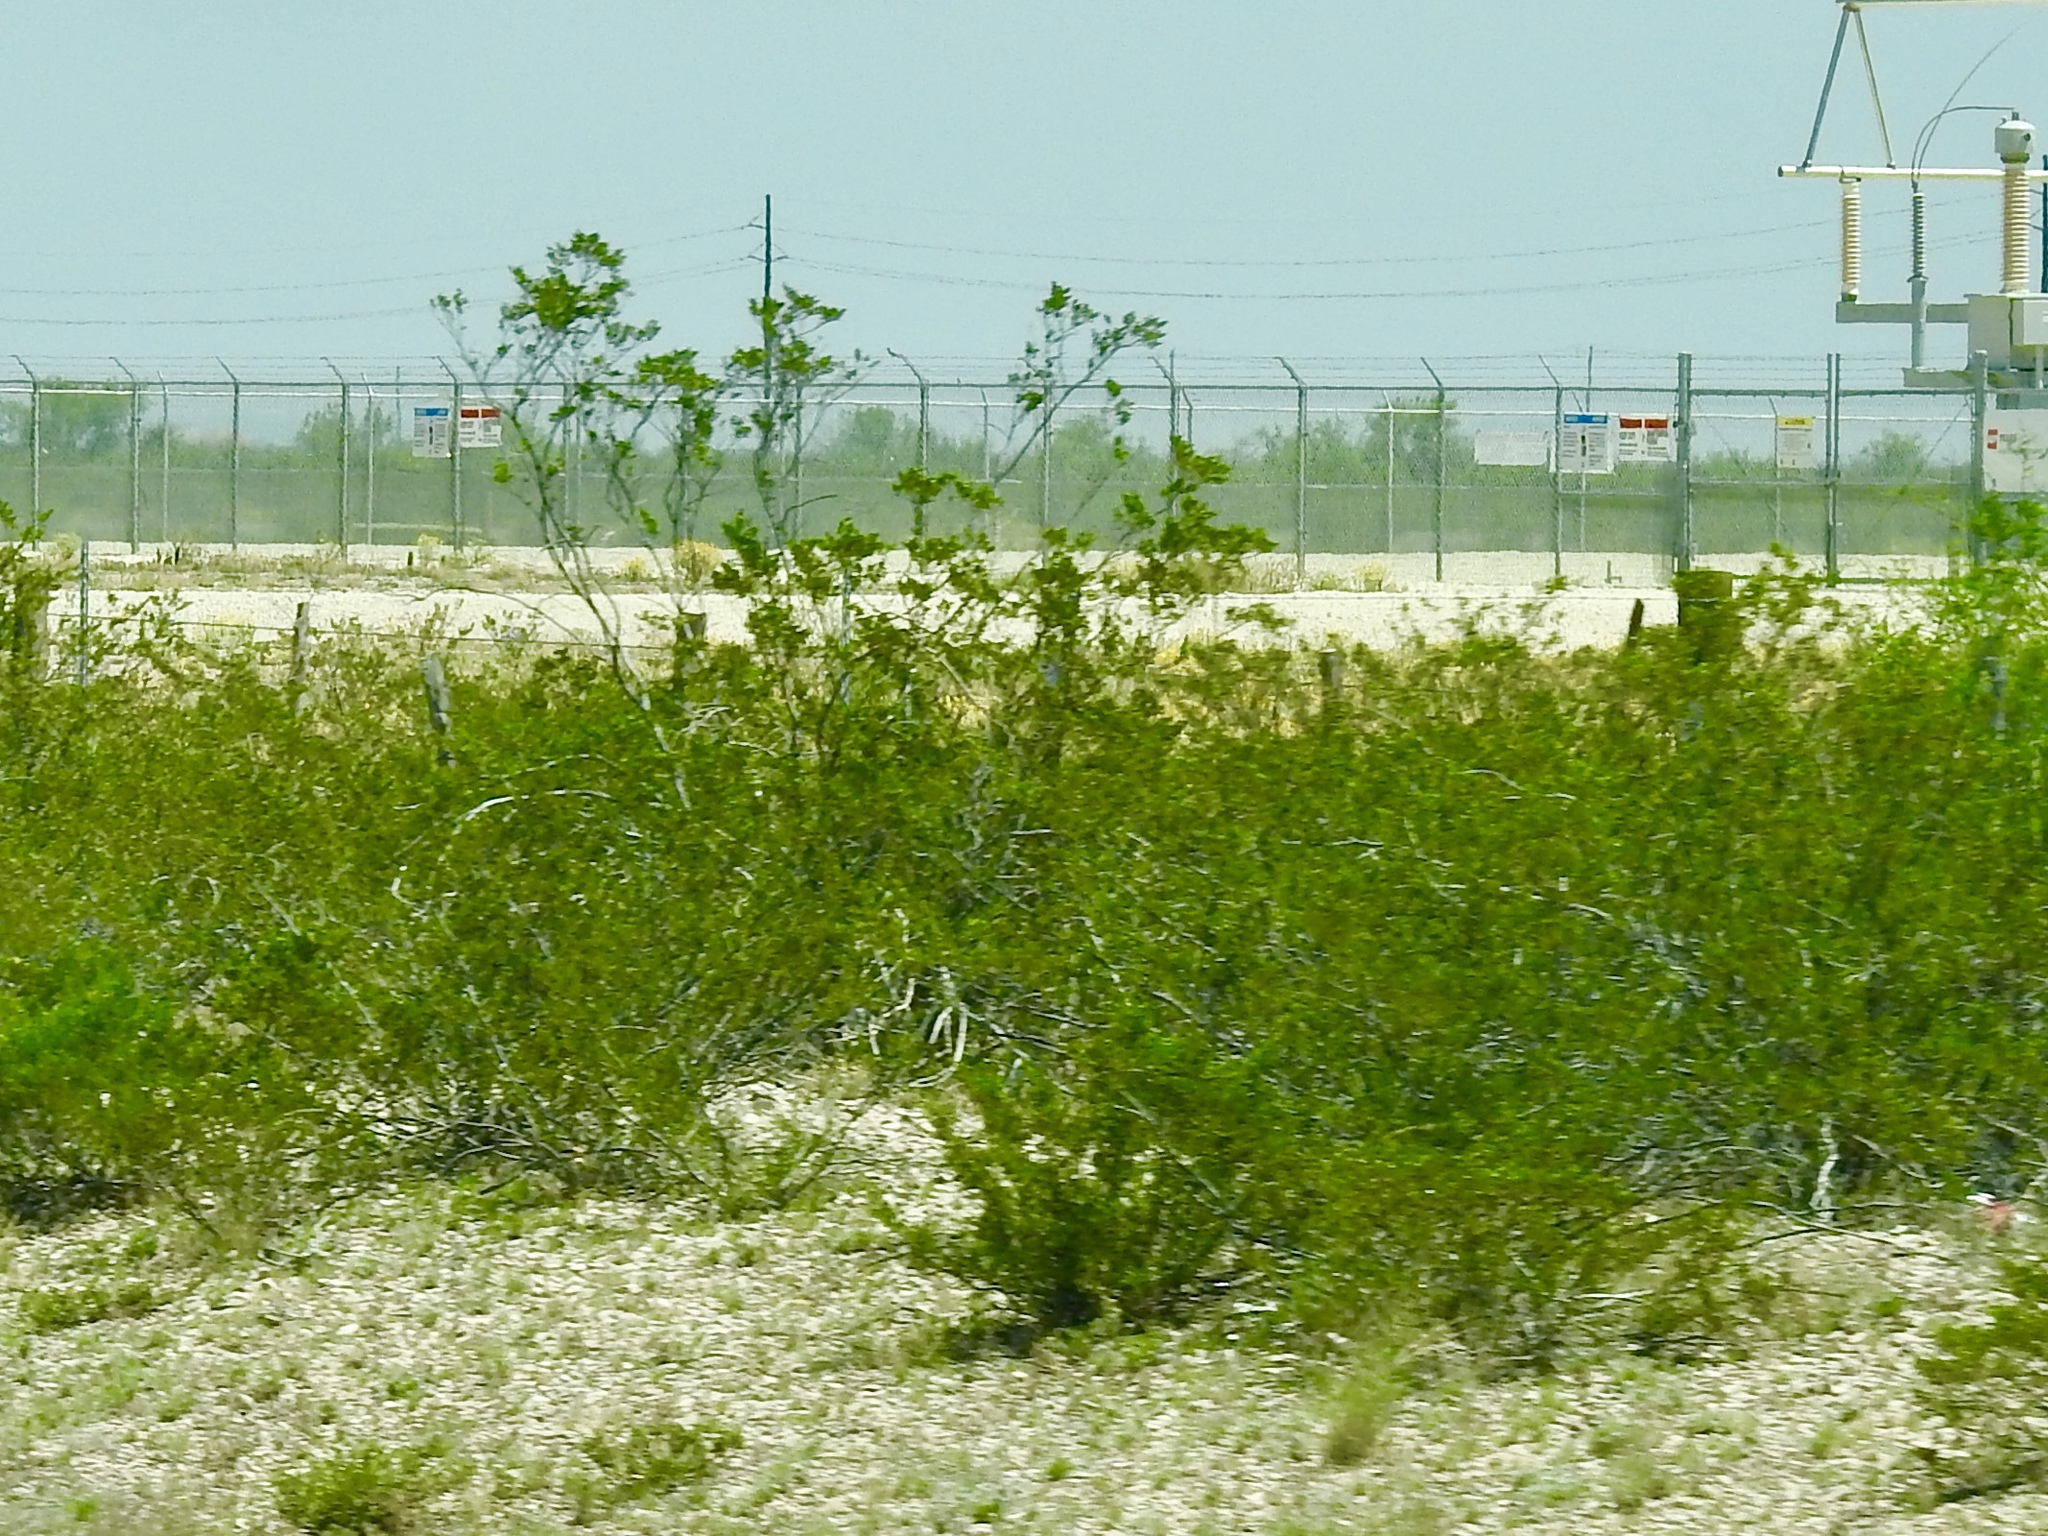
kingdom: Plantae
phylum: Tracheophyta
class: Magnoliopsida
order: Zygophyllales
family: Zygophyllaceae
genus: Larrea
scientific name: Larrea tridentata
